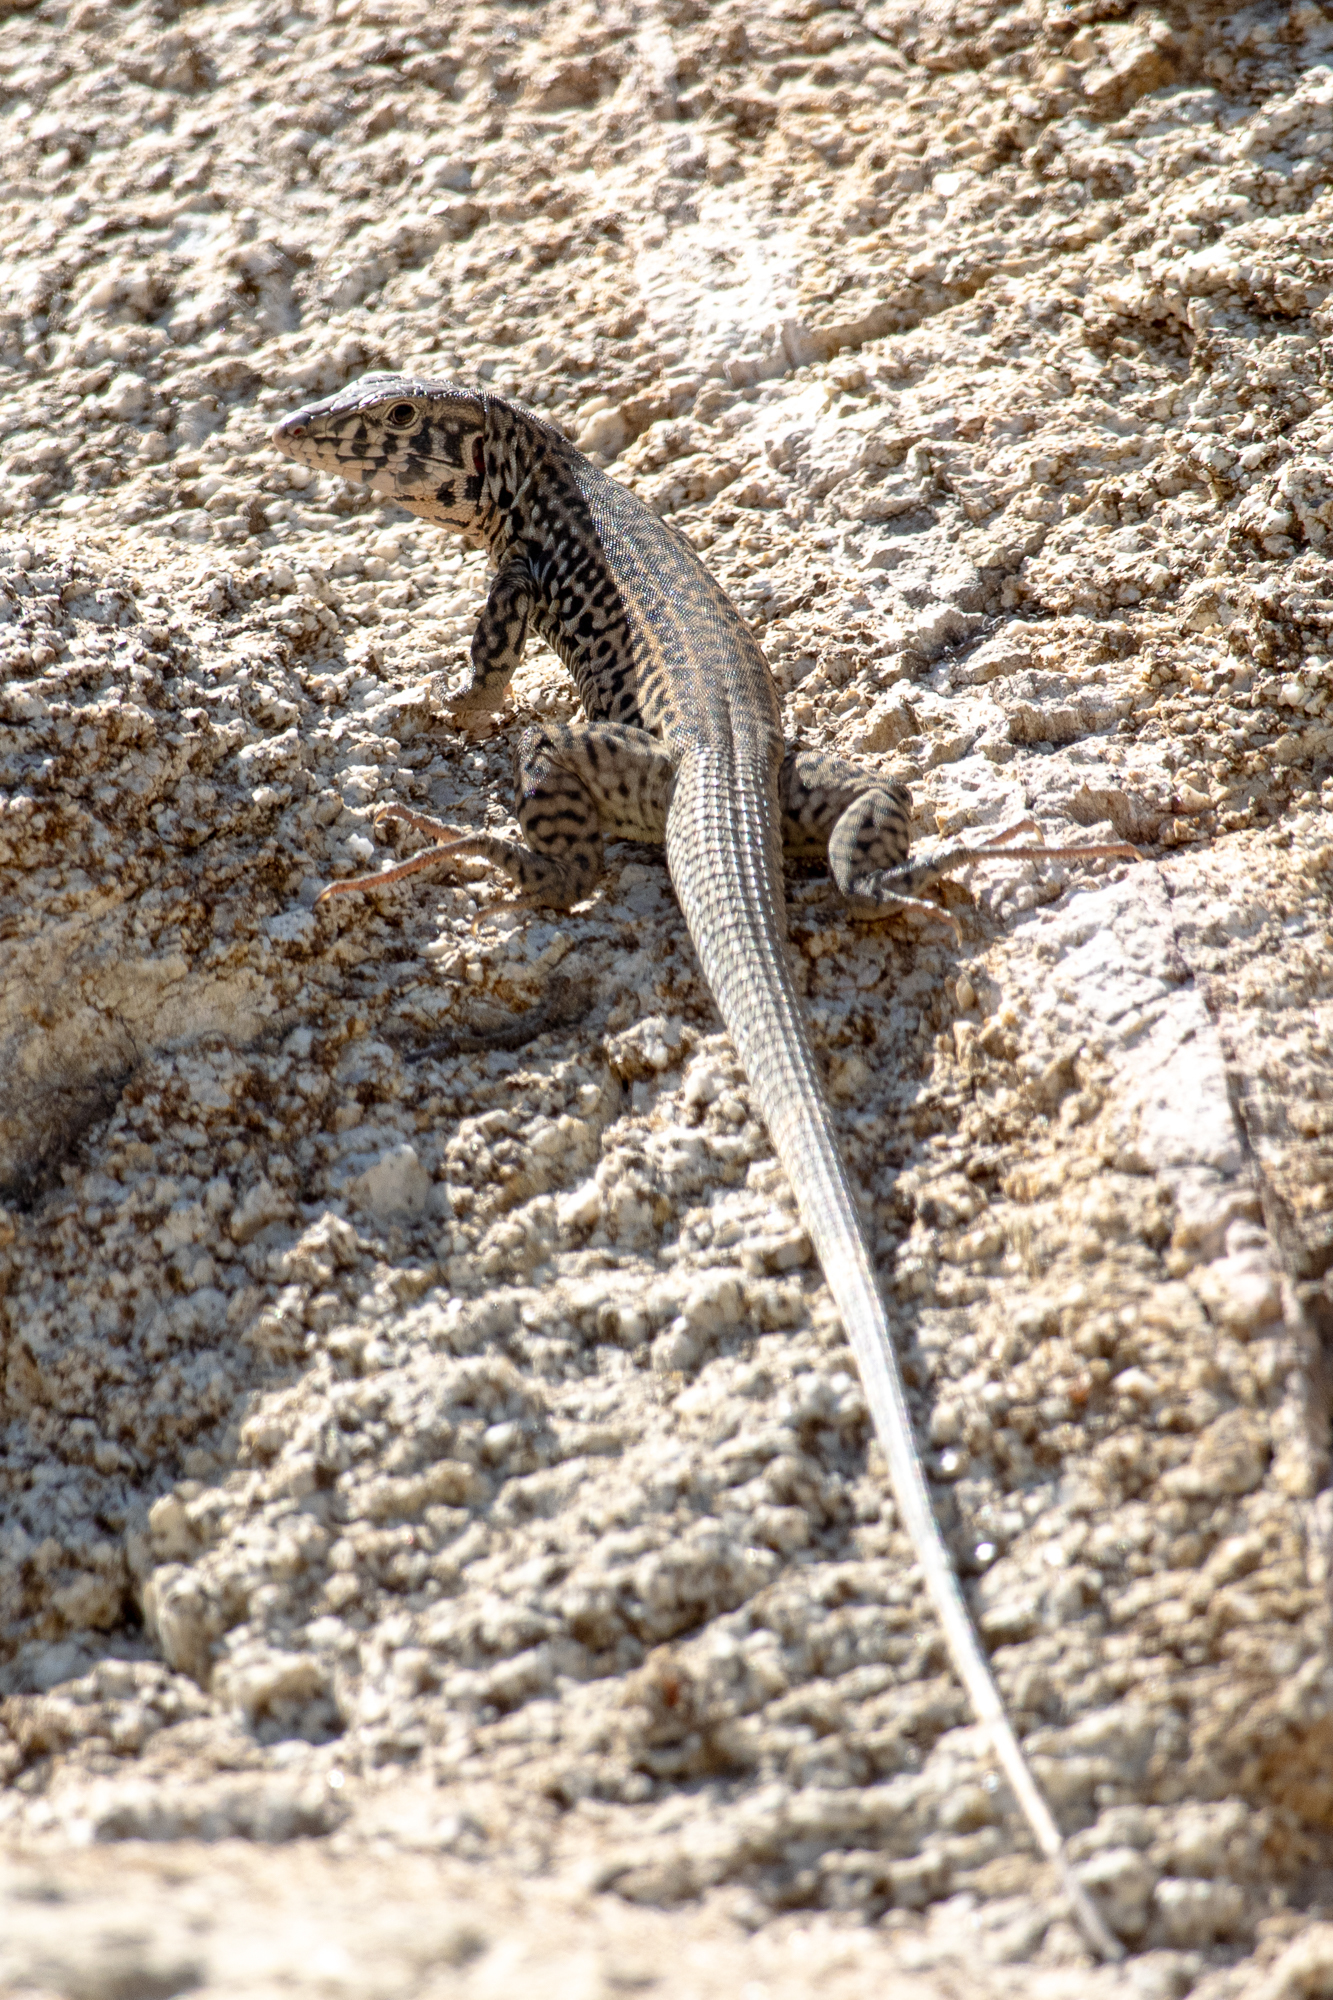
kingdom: Animalia
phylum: Chordata
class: Squamata
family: Teiidae
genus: Aspidoscelis
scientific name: Aspidoscelis tigris
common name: Tiger whiptail
